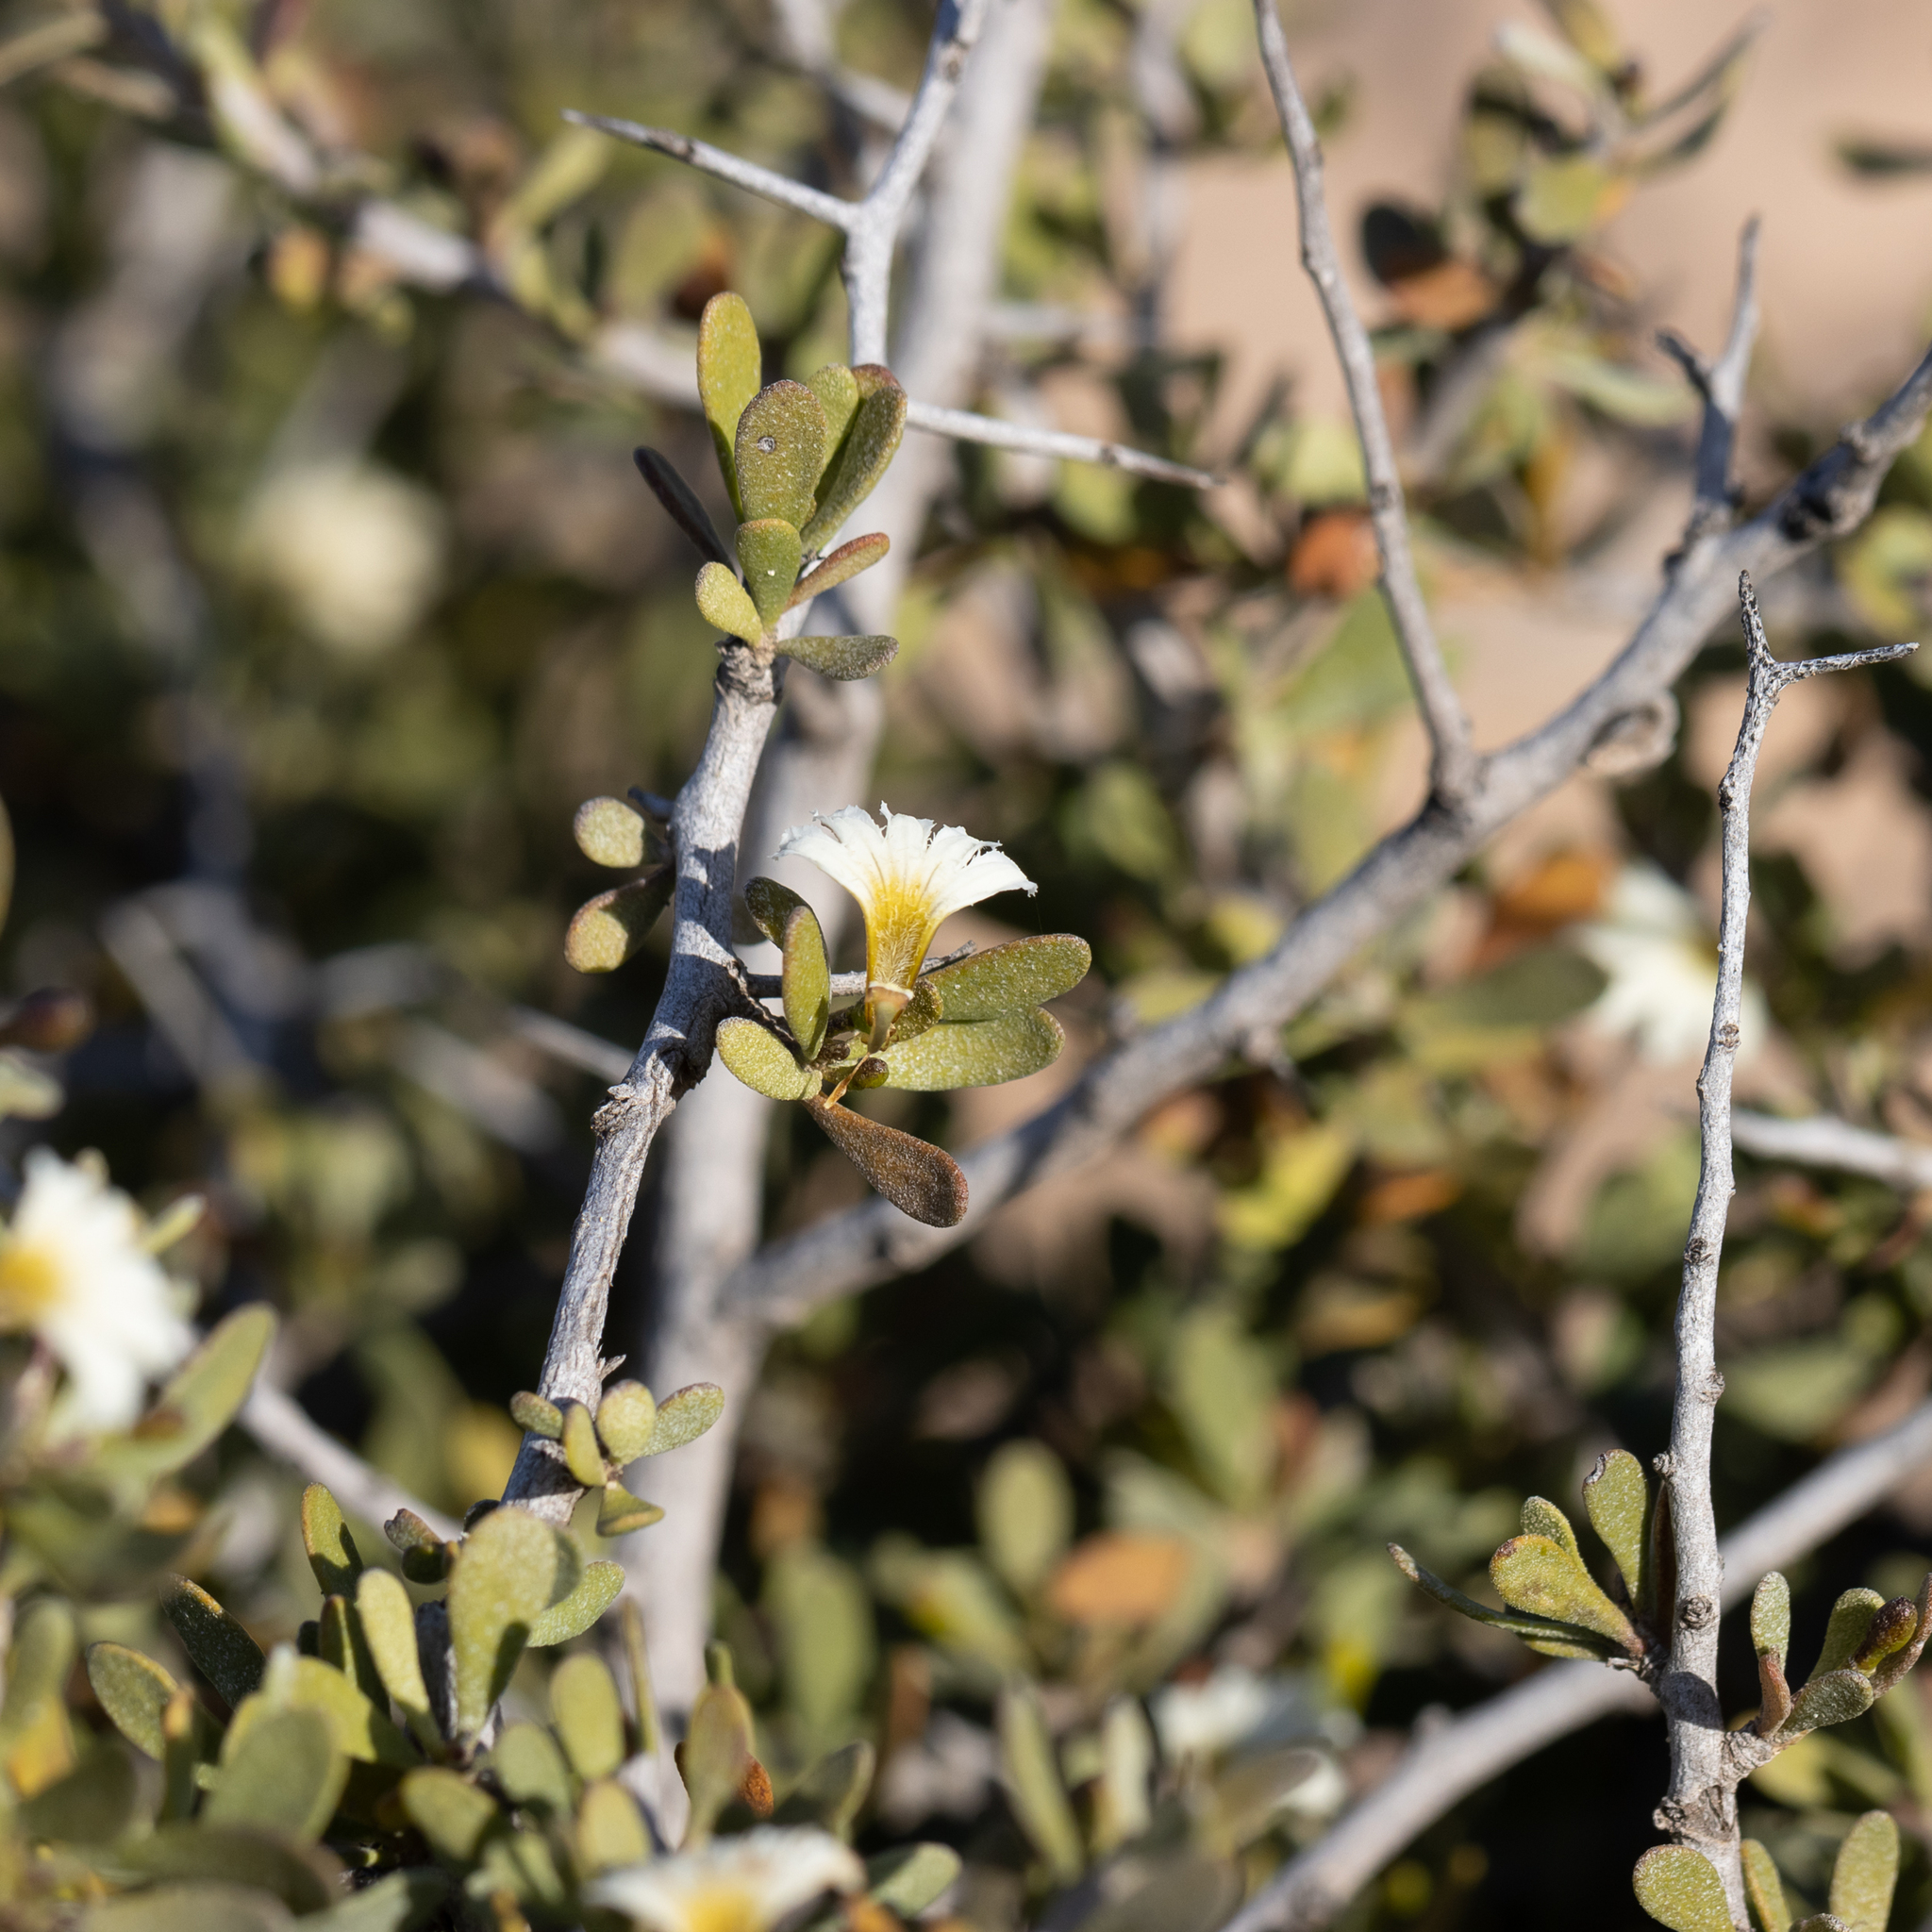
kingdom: Plantae
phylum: Tracheophyta
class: Magnoliopsida
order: Asterales
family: Goodeniaceae
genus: Scaevola
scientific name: Scaevola spinescens
